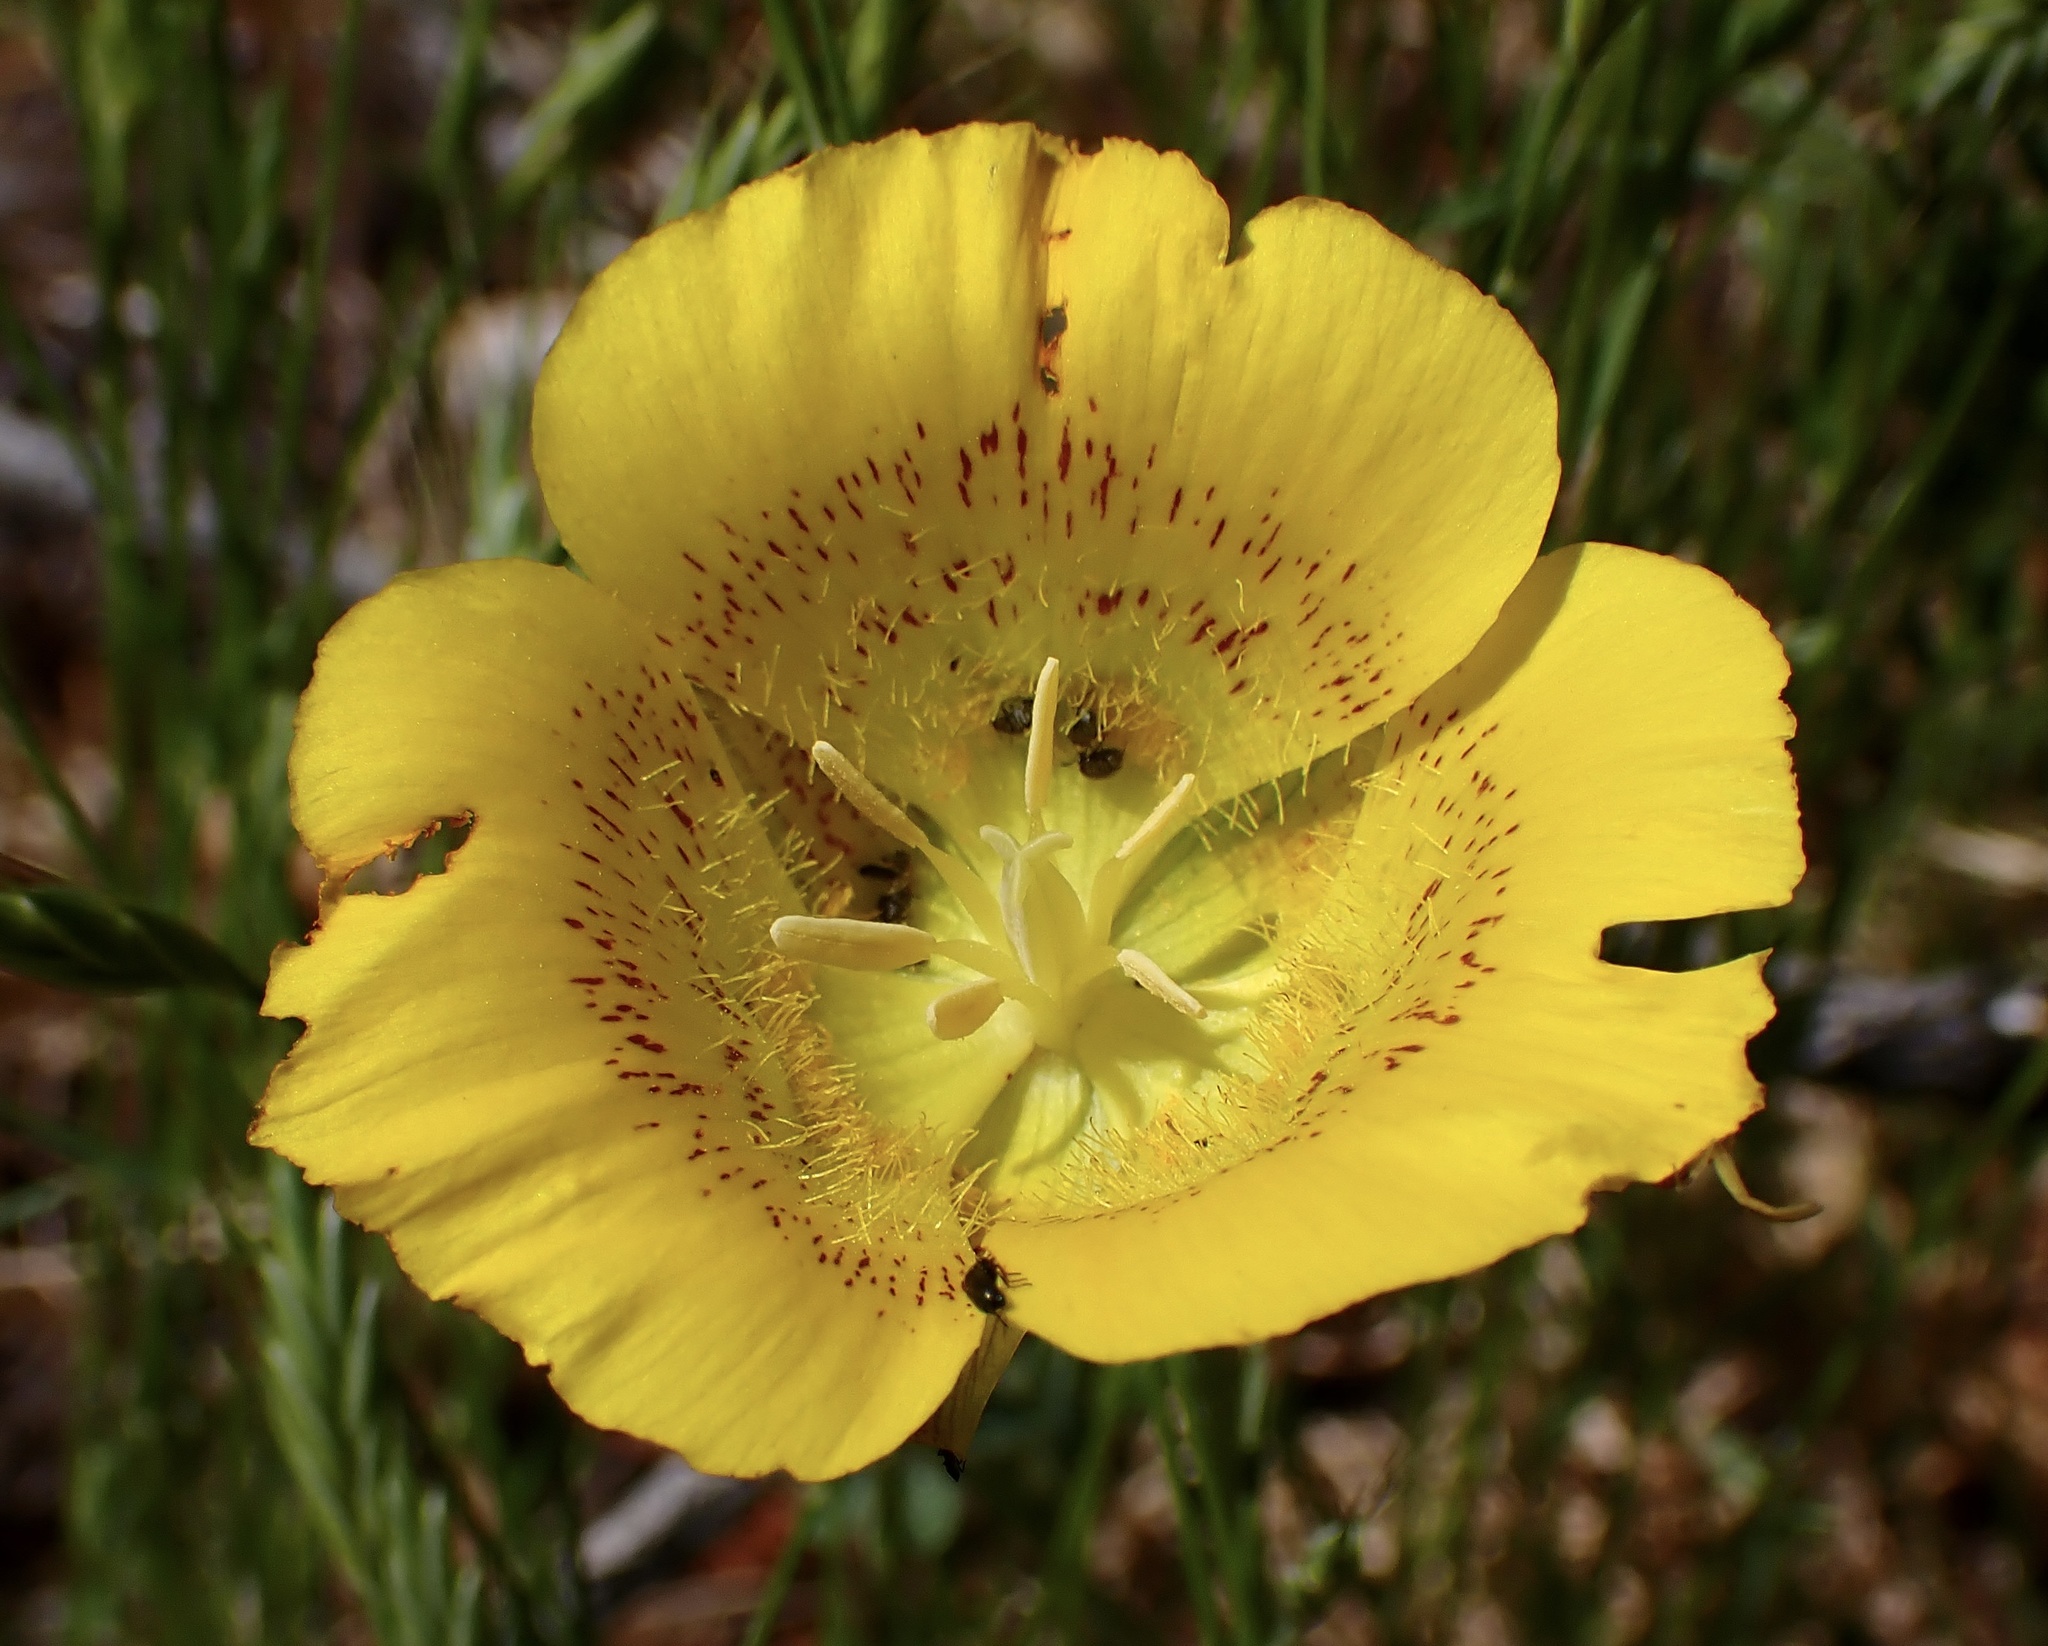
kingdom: Plantae
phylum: Tracheophyta
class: Liliopsida
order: Liliales
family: Liliaceae
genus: Calochortus
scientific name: Calochortus luteus
